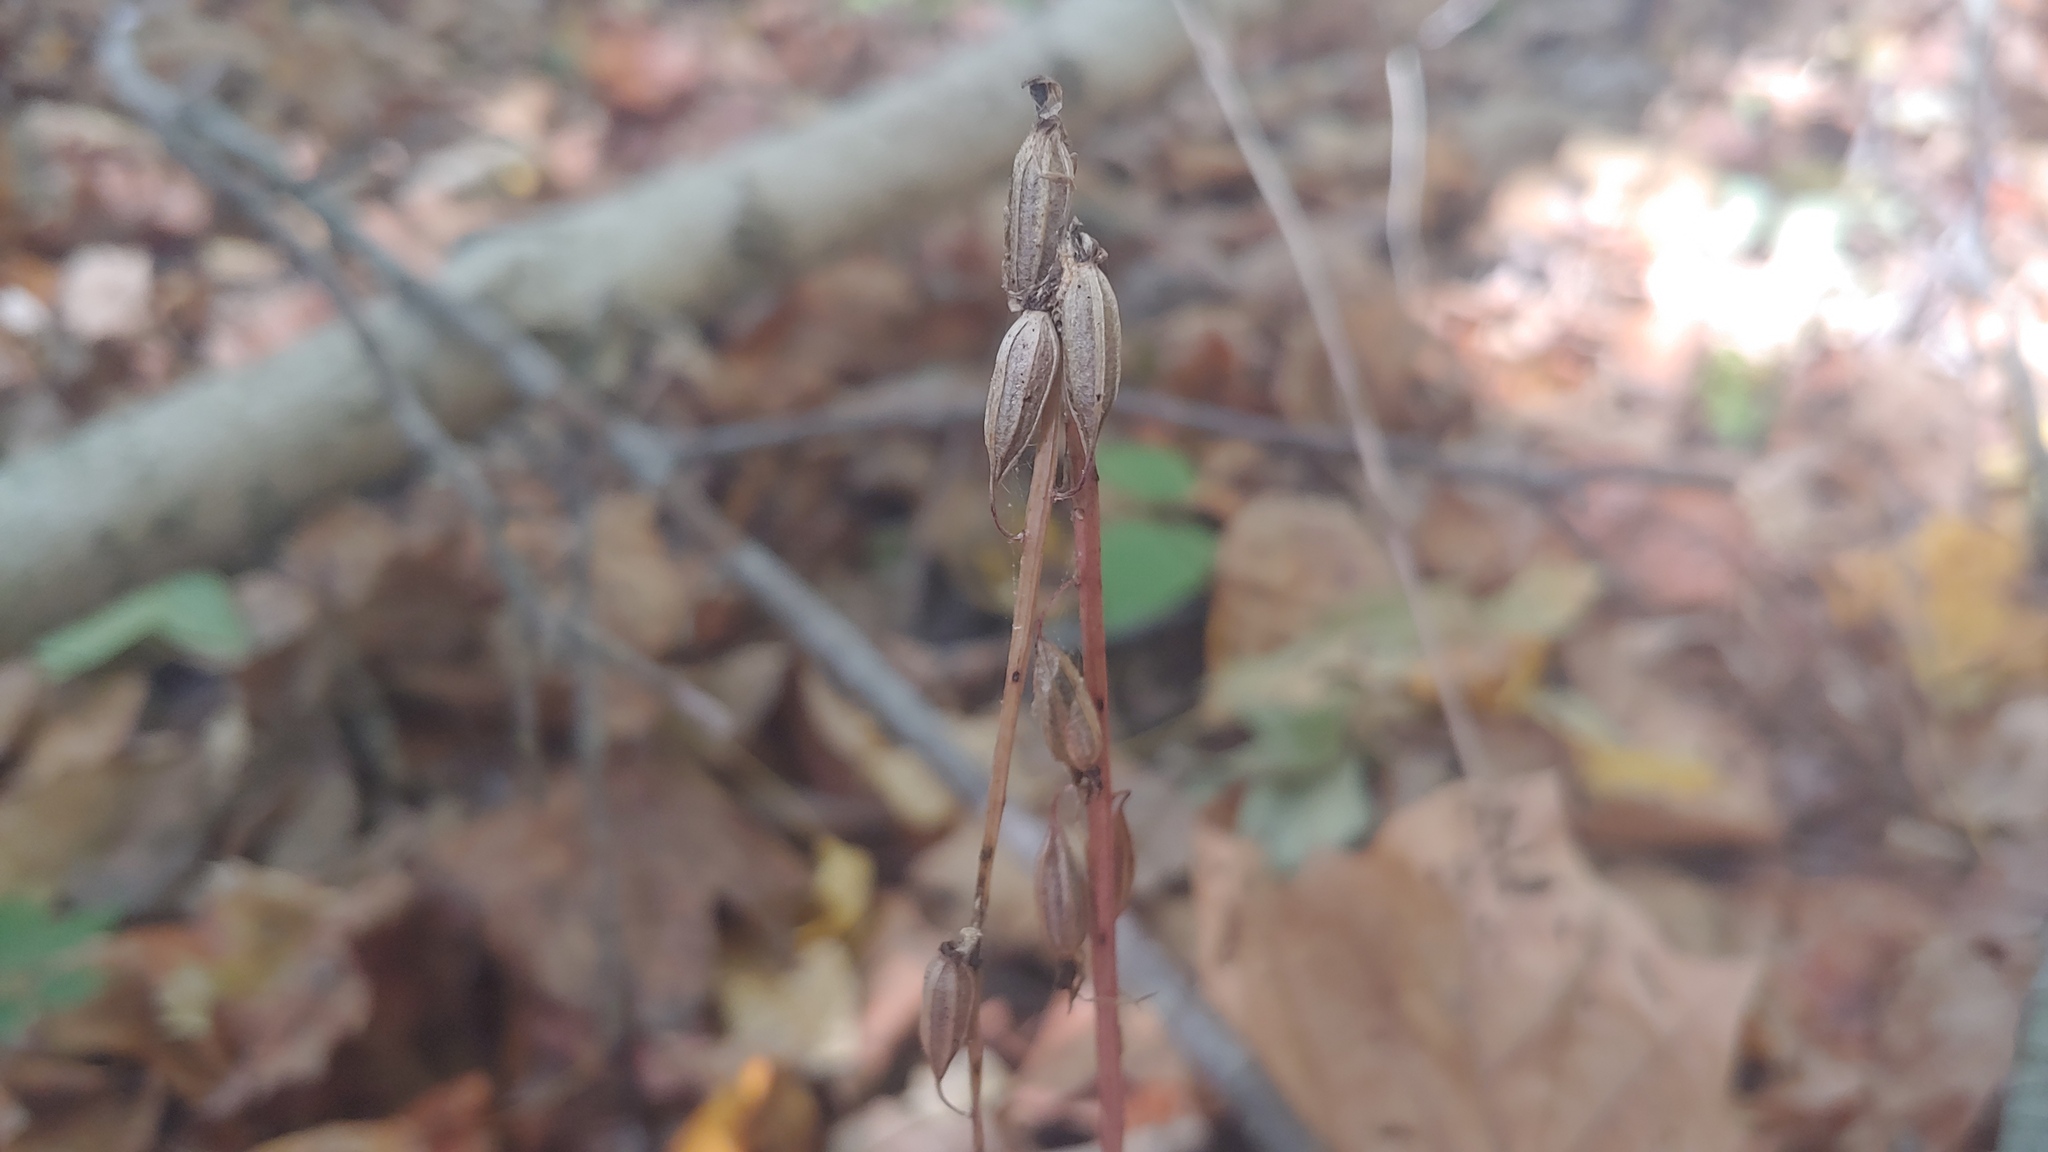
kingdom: Plantae
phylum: Tracheophyta
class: Liliopsida
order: Asparagales
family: Orchidaceae
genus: Tipularia
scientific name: Tipularia discolor
